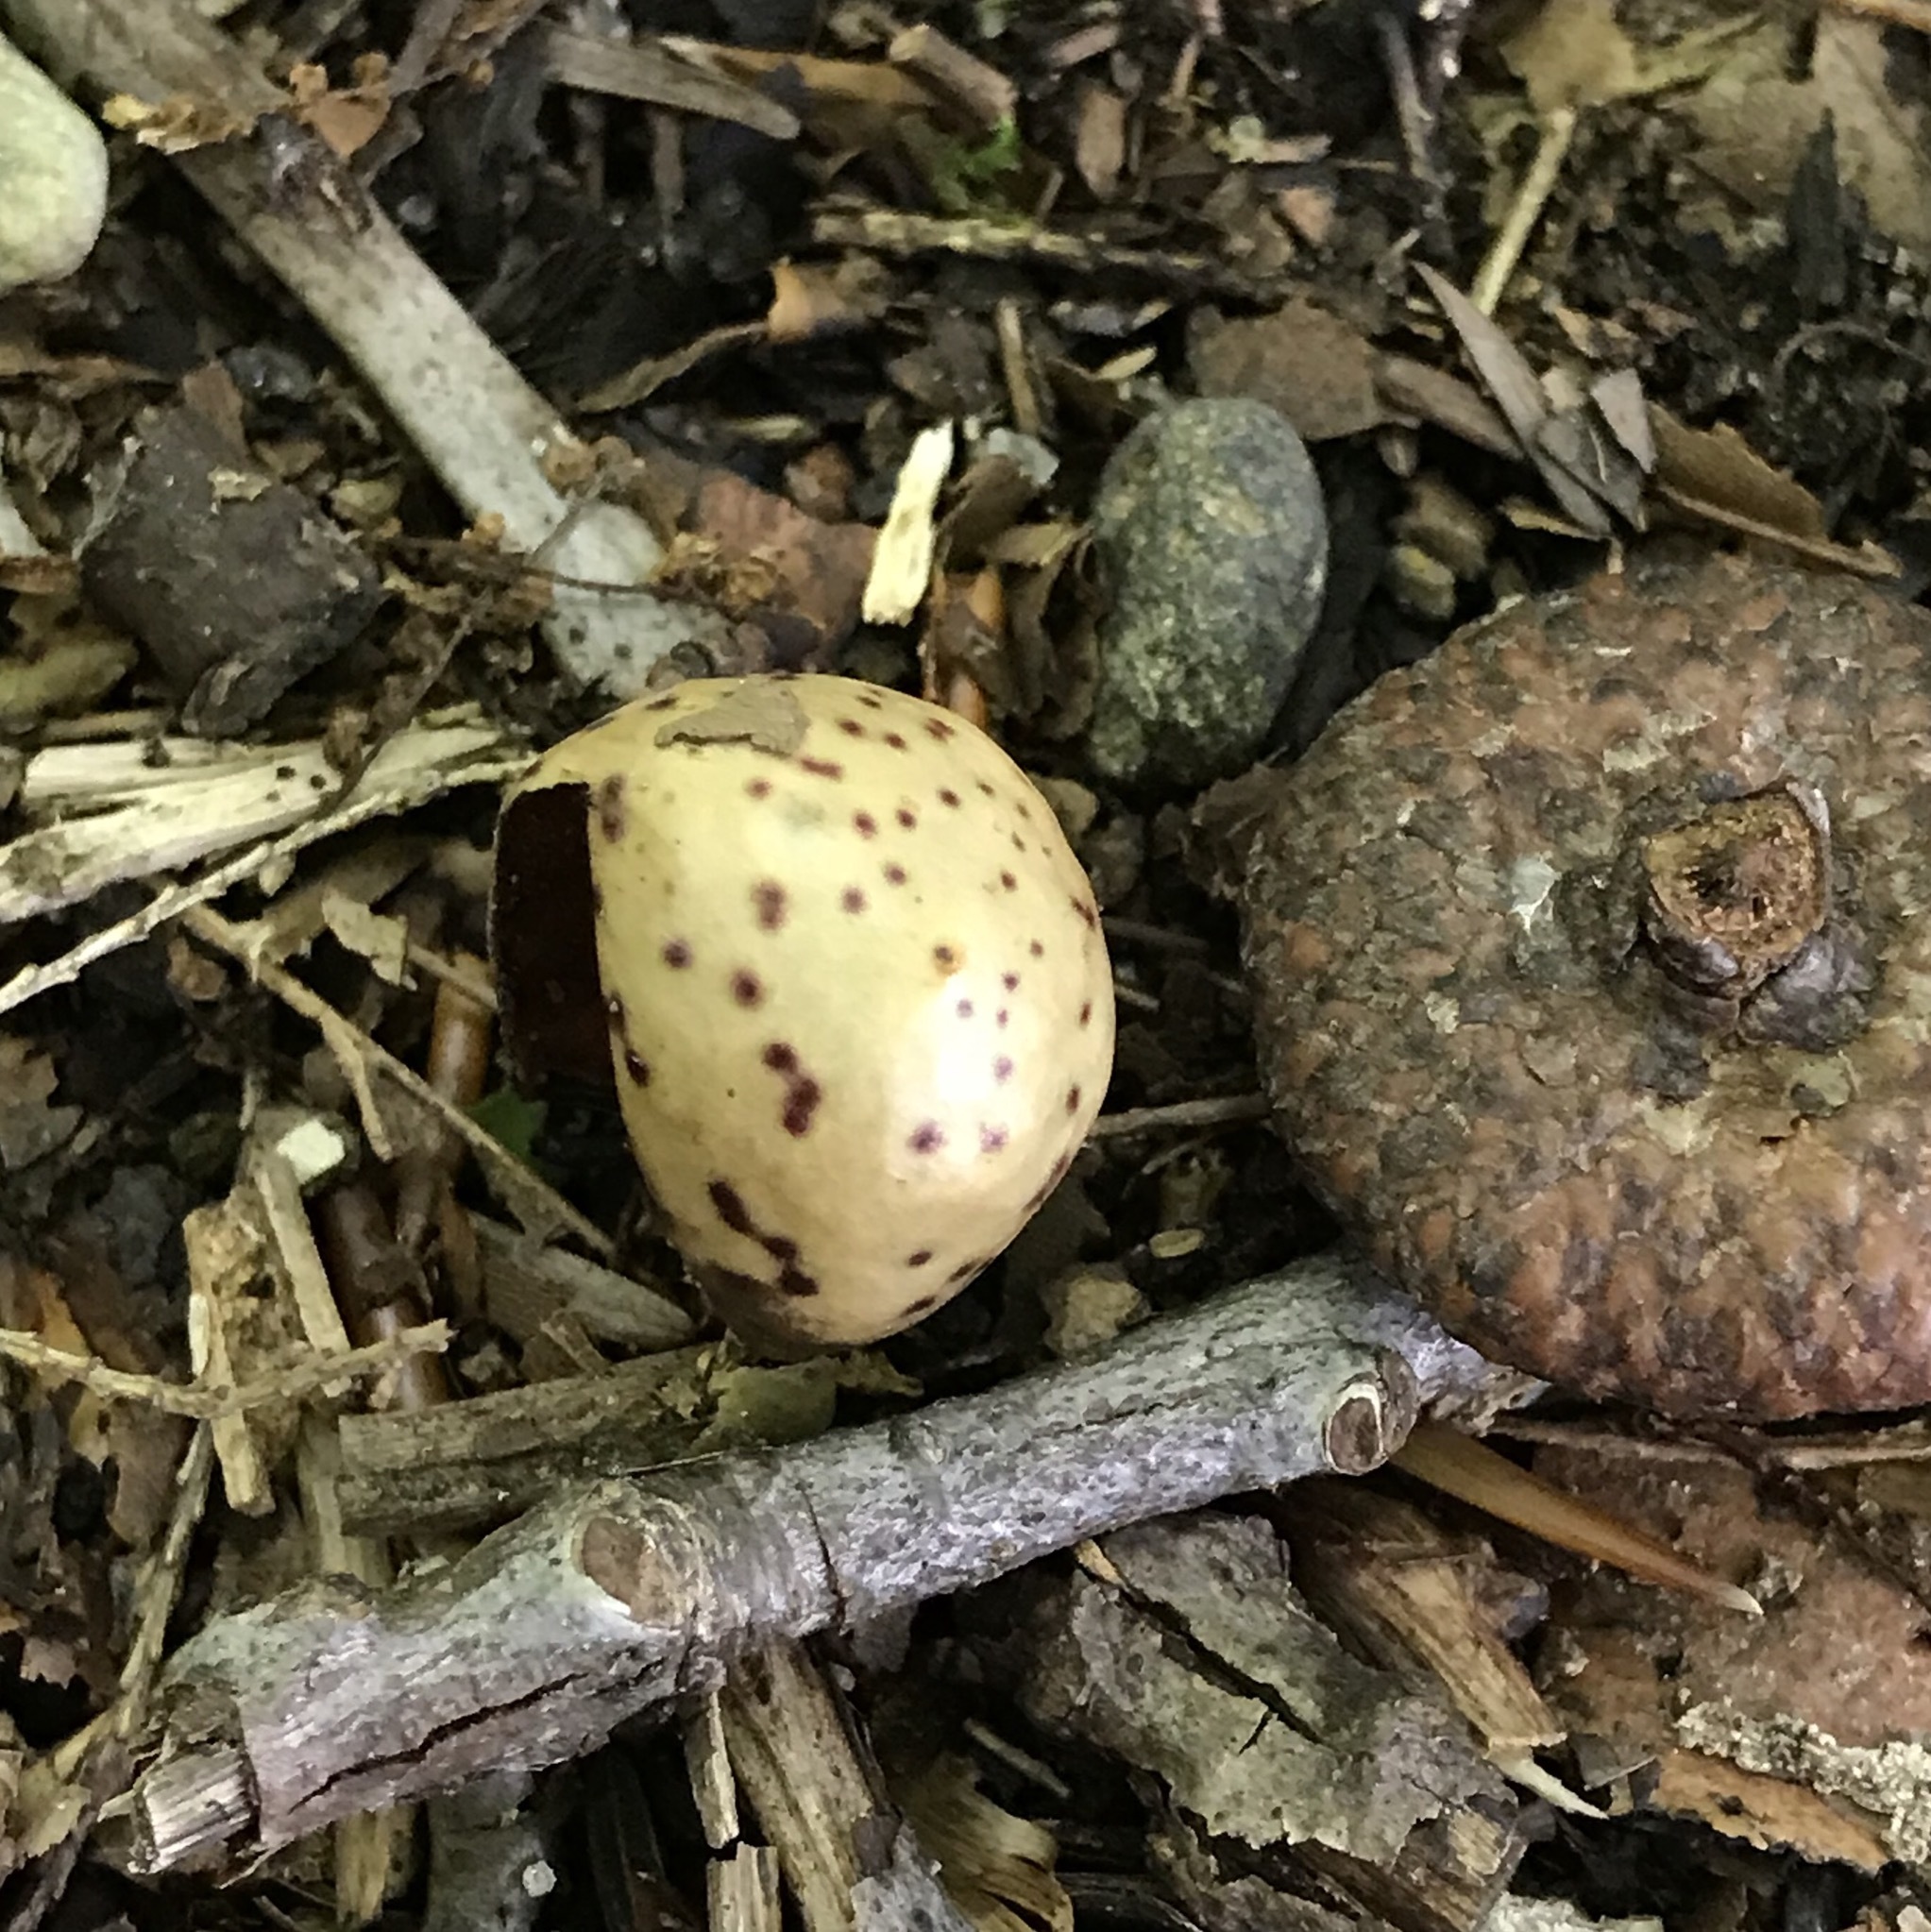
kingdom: Animalia
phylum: Arthropoda
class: Insecta
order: Hymenoptera
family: Cynipidae
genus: Amphibolips
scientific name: Amphibolips
